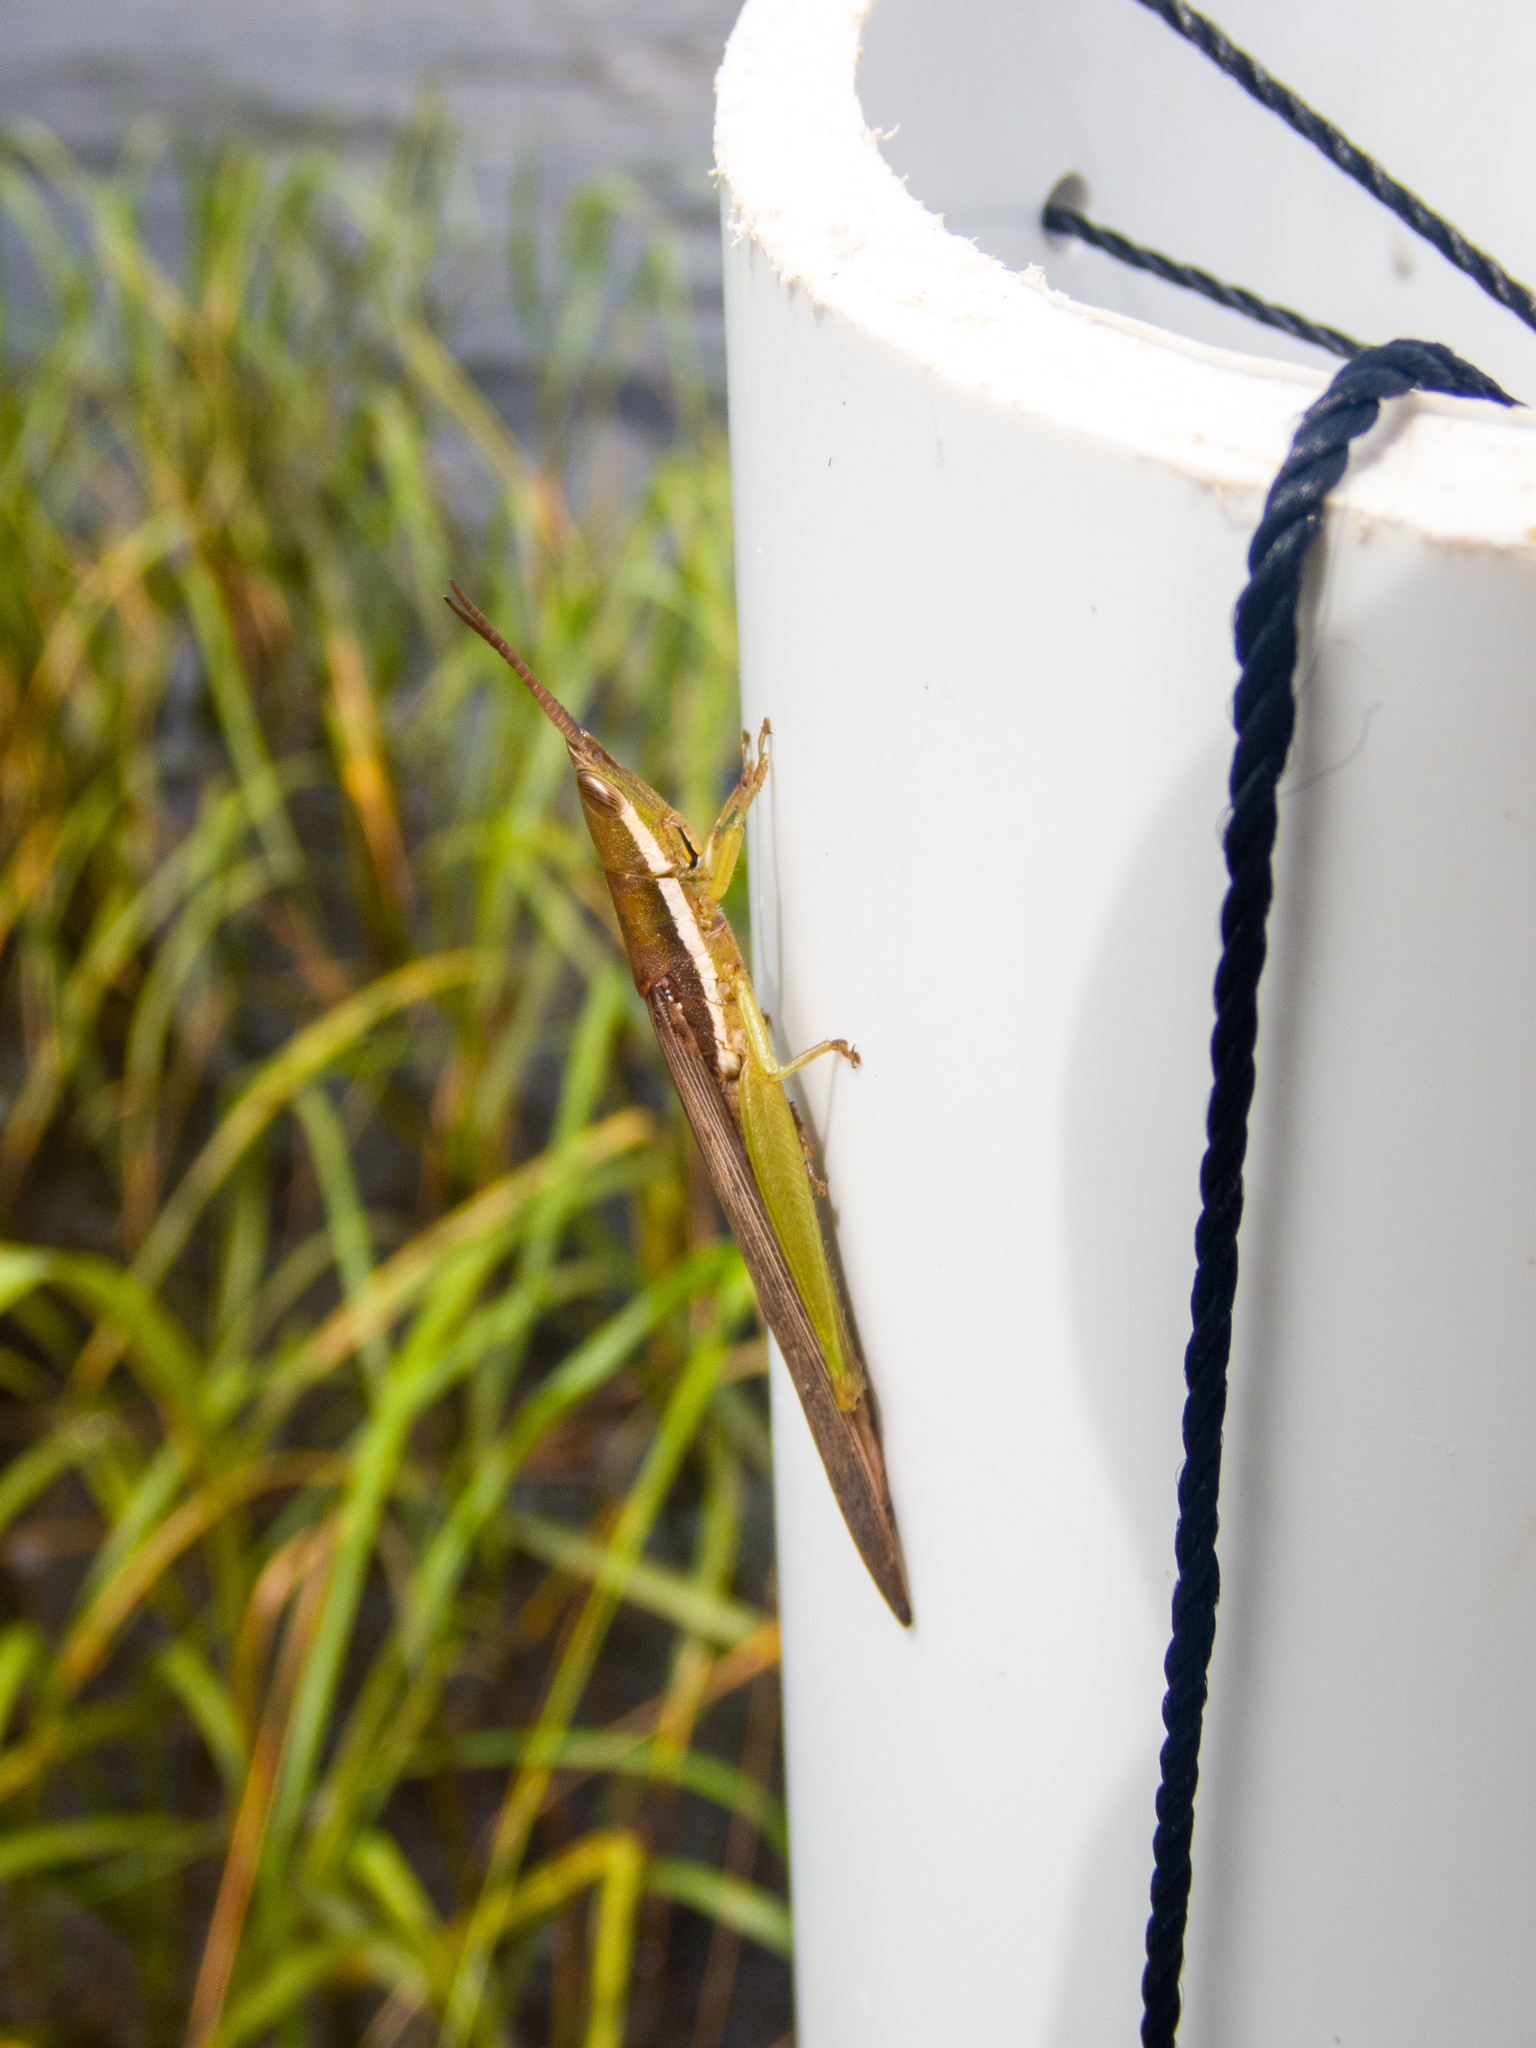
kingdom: Animalia
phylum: Arthropoda
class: Insecta
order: Orthoptera
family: Acrididae
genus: Leptysma
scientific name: Leptysma marginicollis
